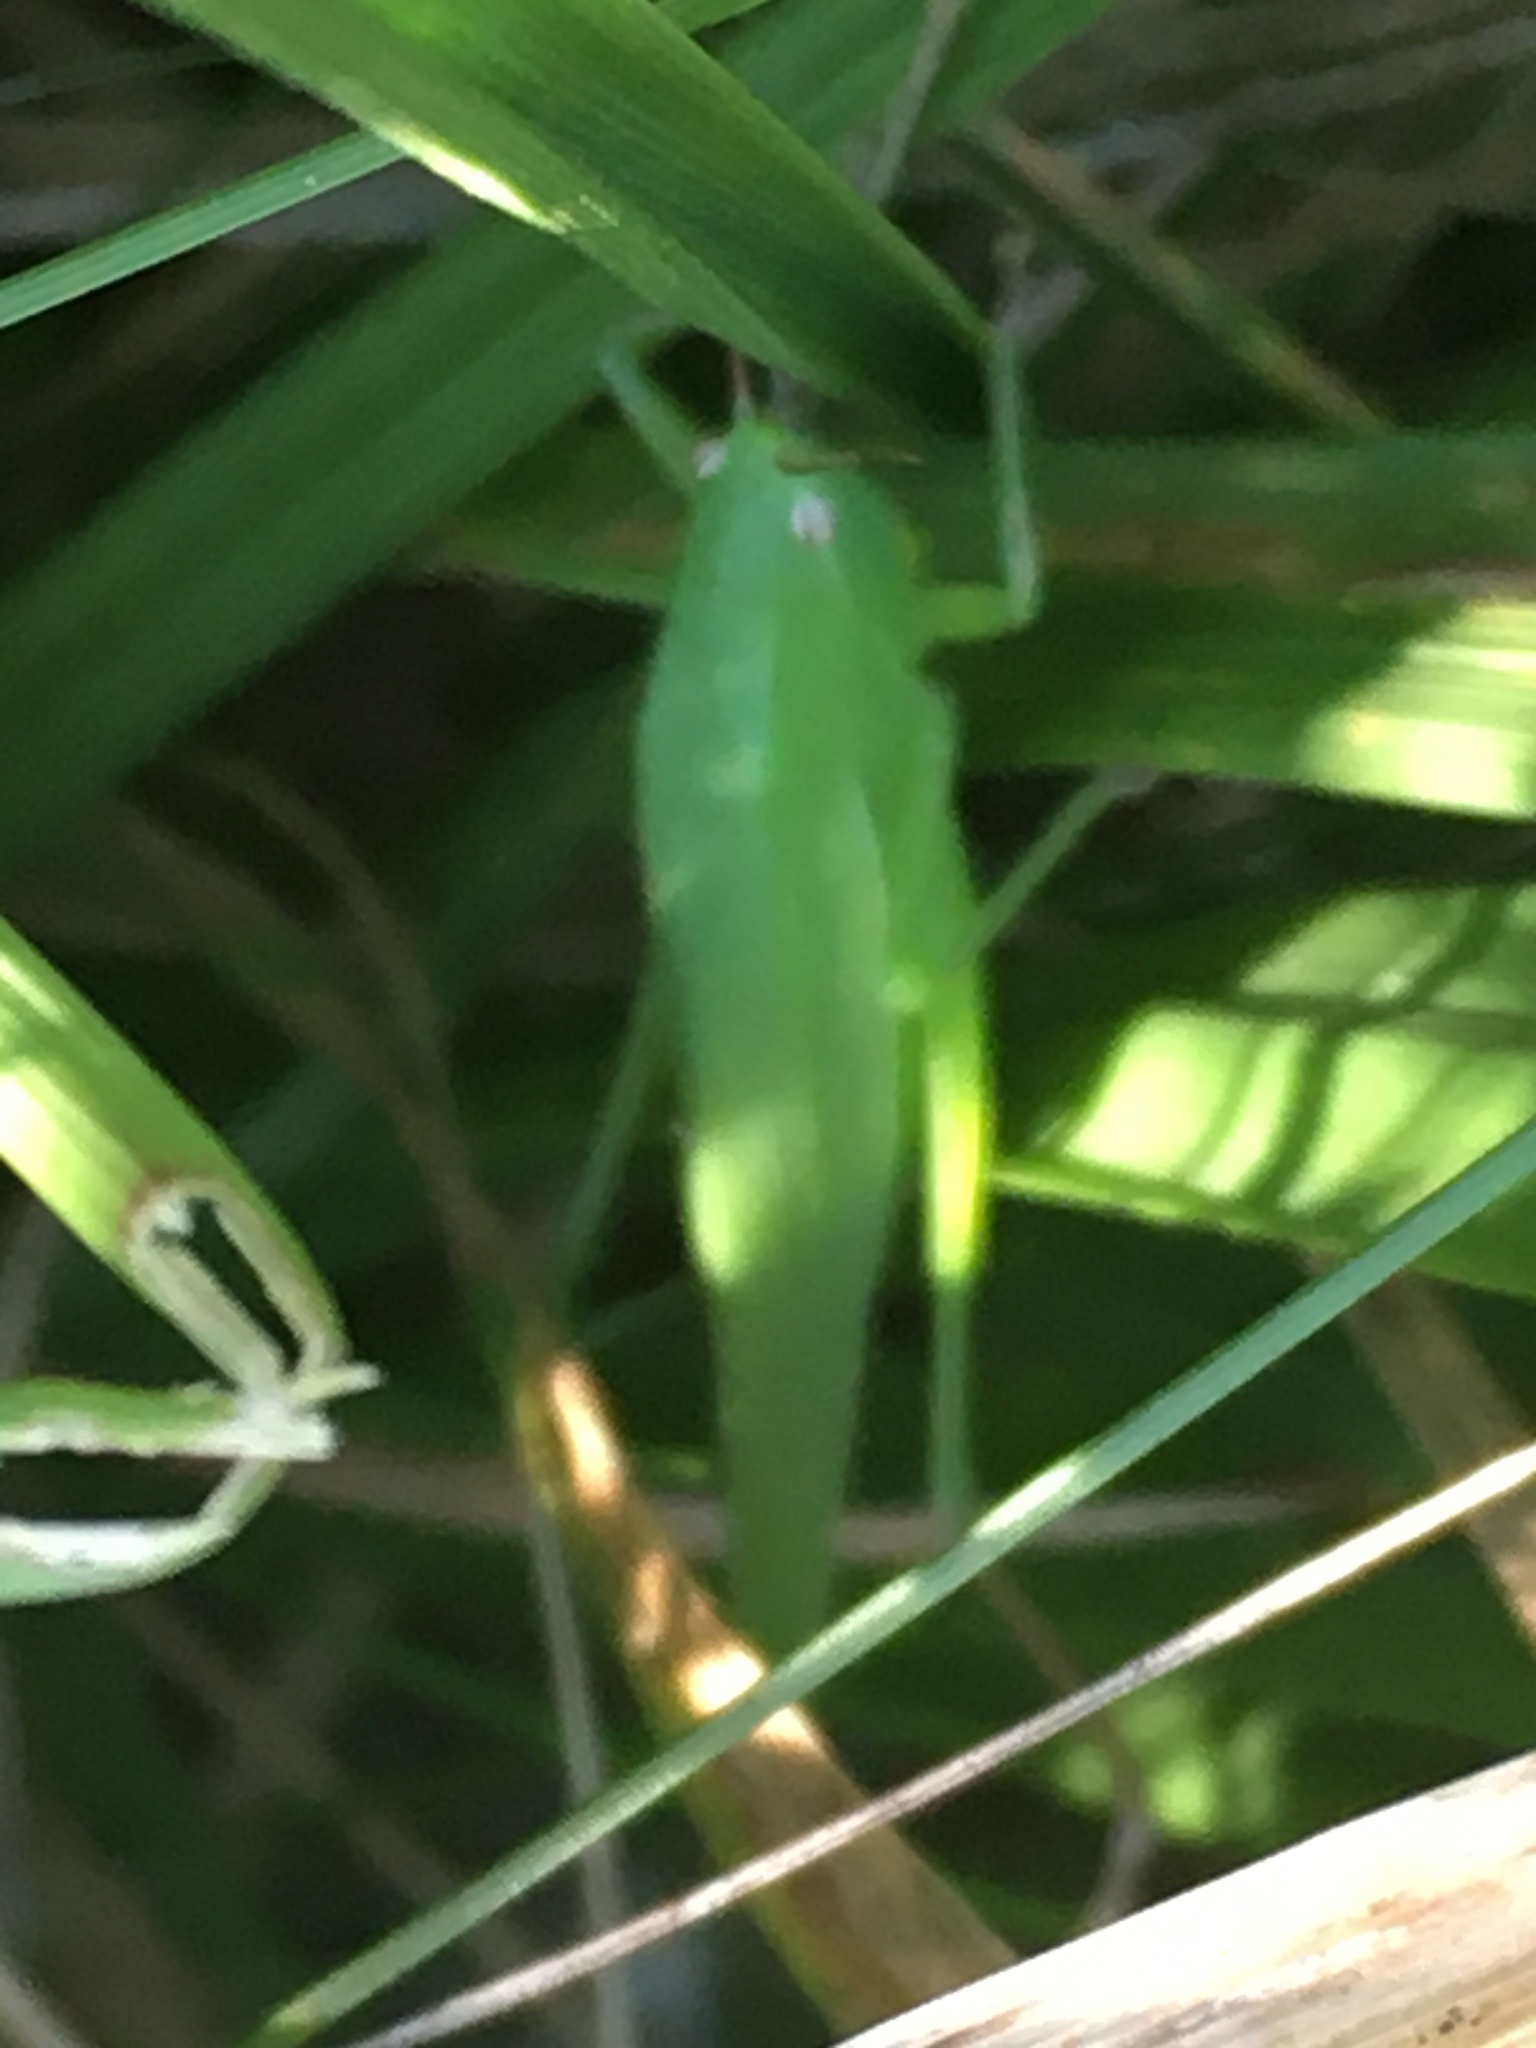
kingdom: Animalia
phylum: Arthropoda
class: Insecta
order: Orthoptera
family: Tettigoniidae
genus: Ruspolia
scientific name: Ruspolia nitidula
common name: Large conehead
